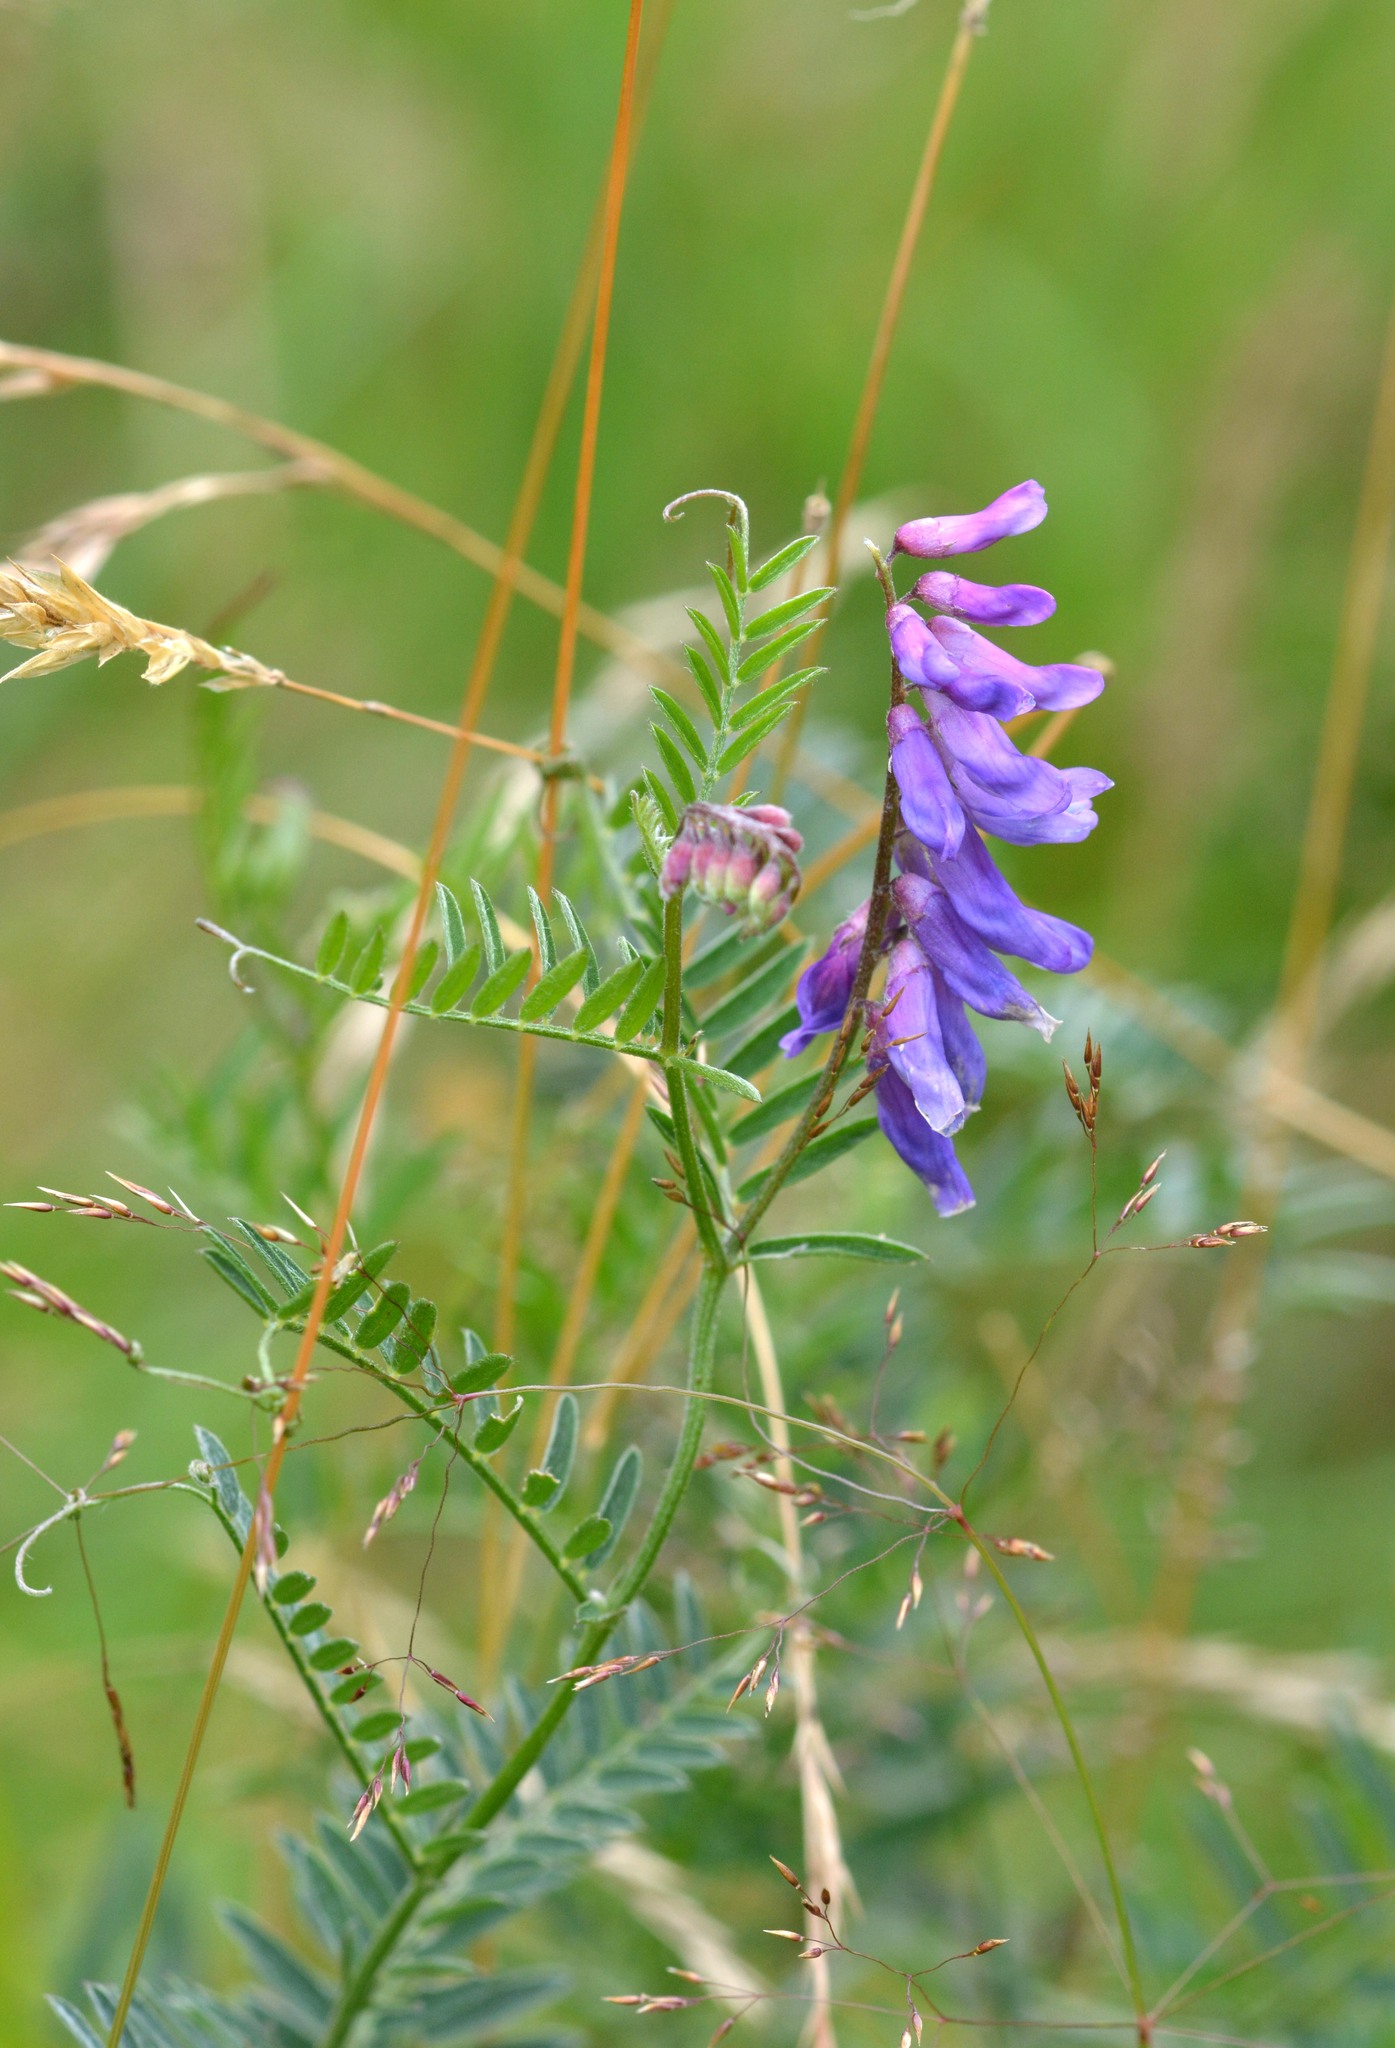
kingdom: Plantae
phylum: Tracheophyta
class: Magnoliopsida
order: Fabales
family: Fabaceae
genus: Vicia
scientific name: Vicia cracca
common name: Bird vetch
